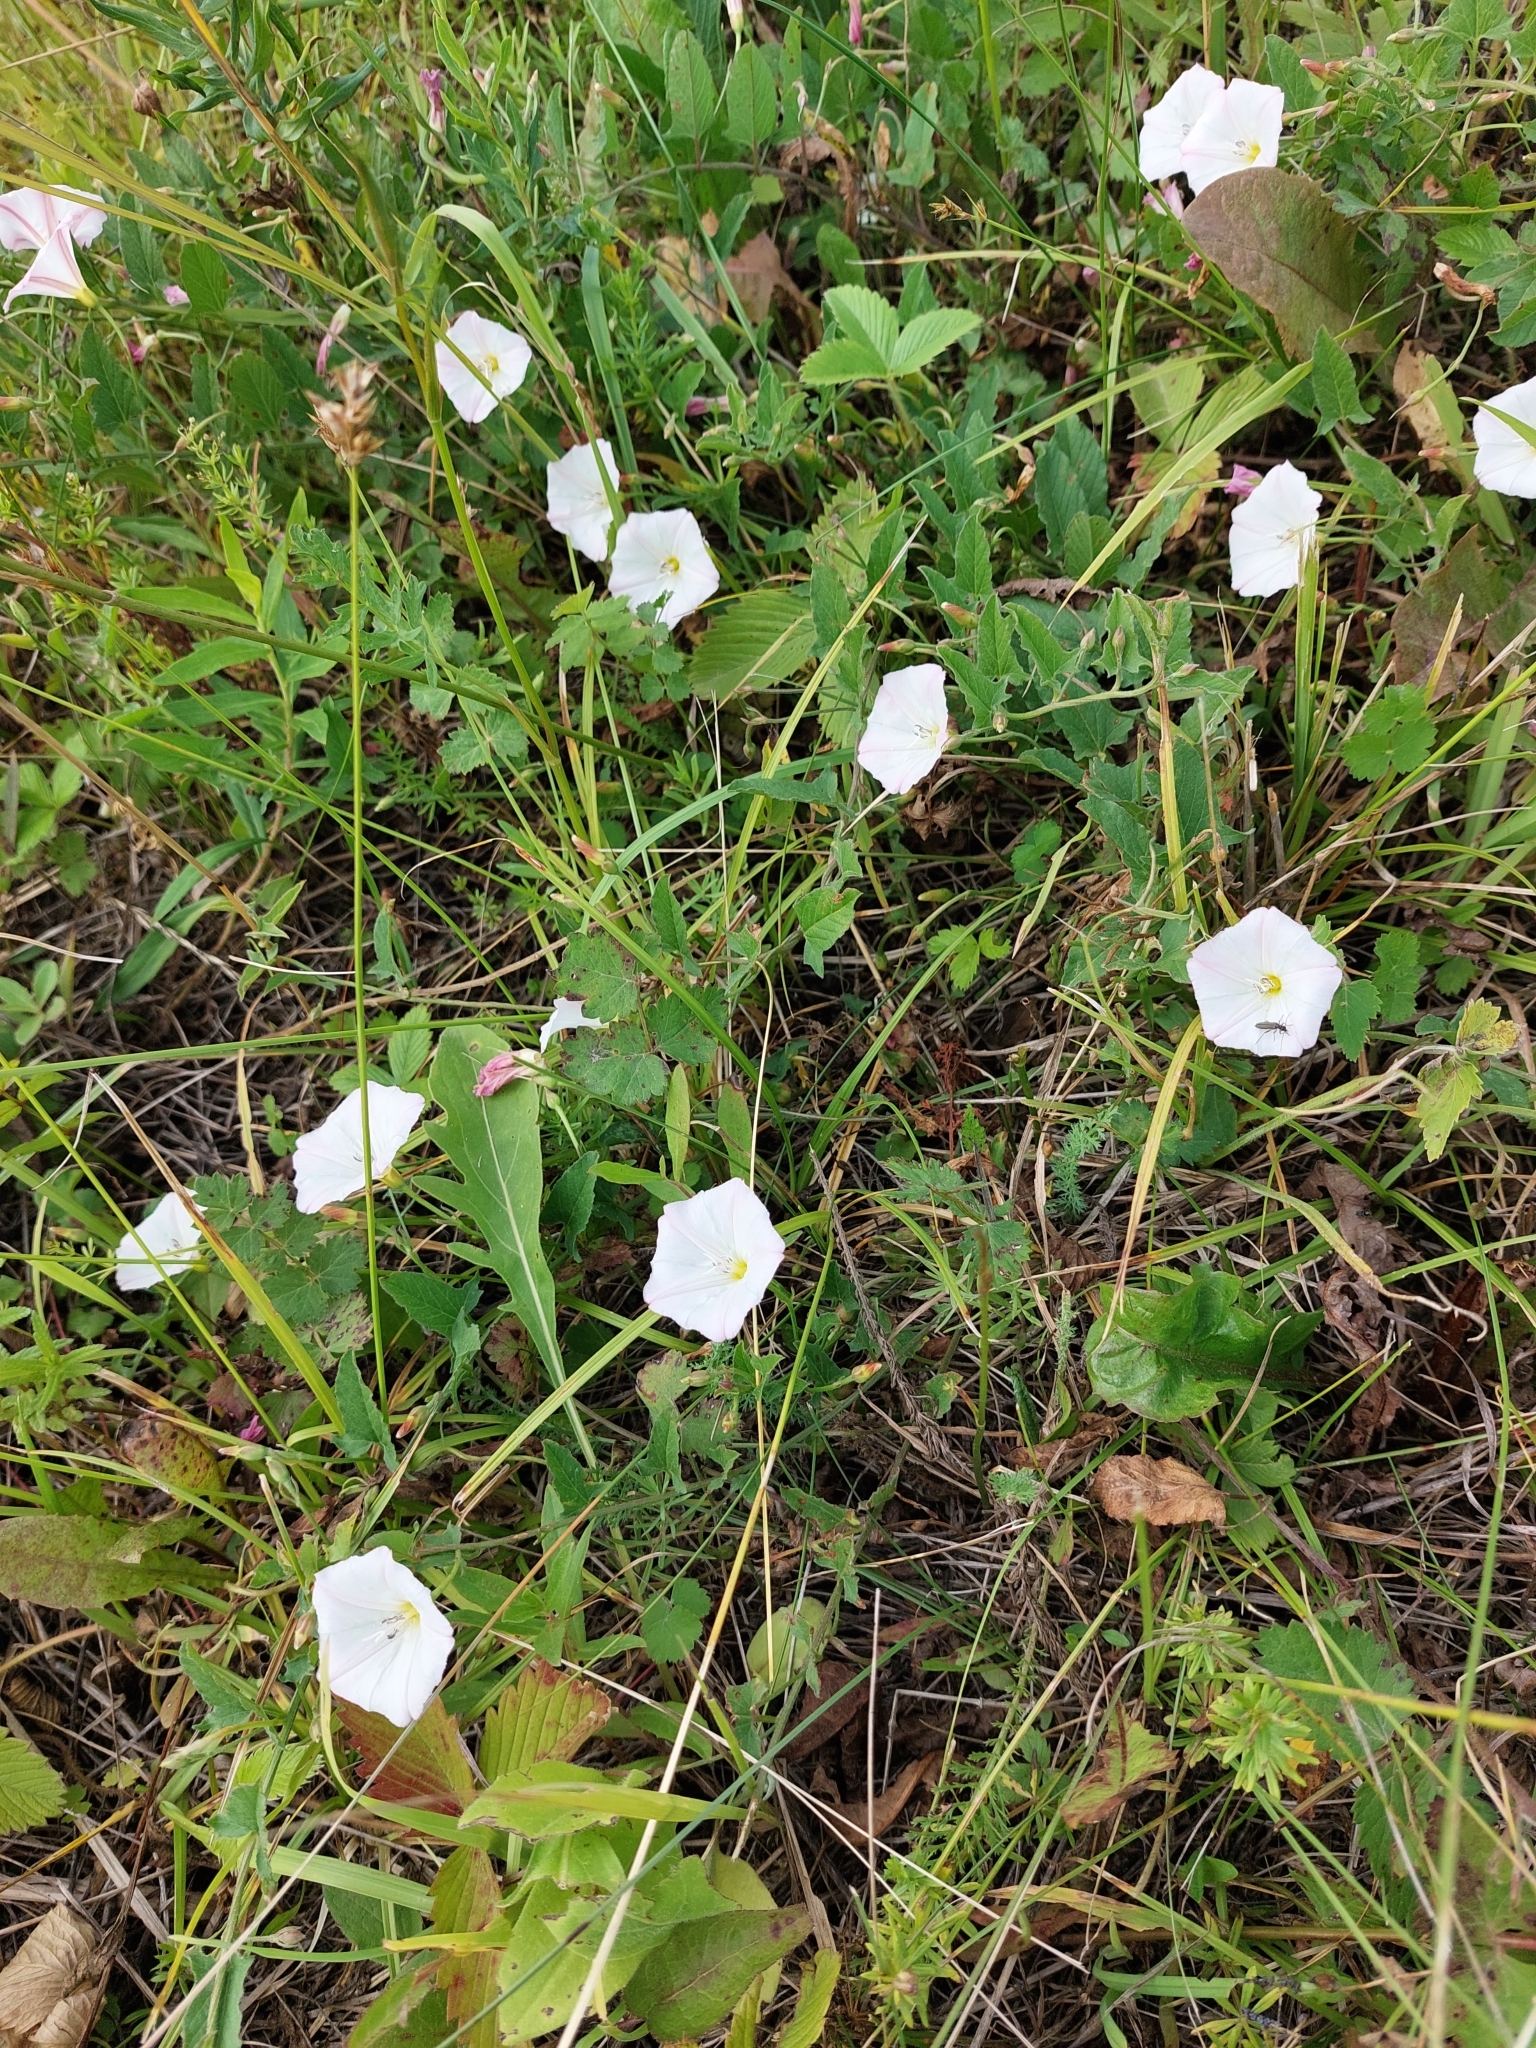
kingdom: Plantae
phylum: Tracheophyta
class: Magnoliopsida
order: Solanales
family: Convolvulaceae
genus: Convolvulus
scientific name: Convolvulus arvensis
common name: Field bindweed
